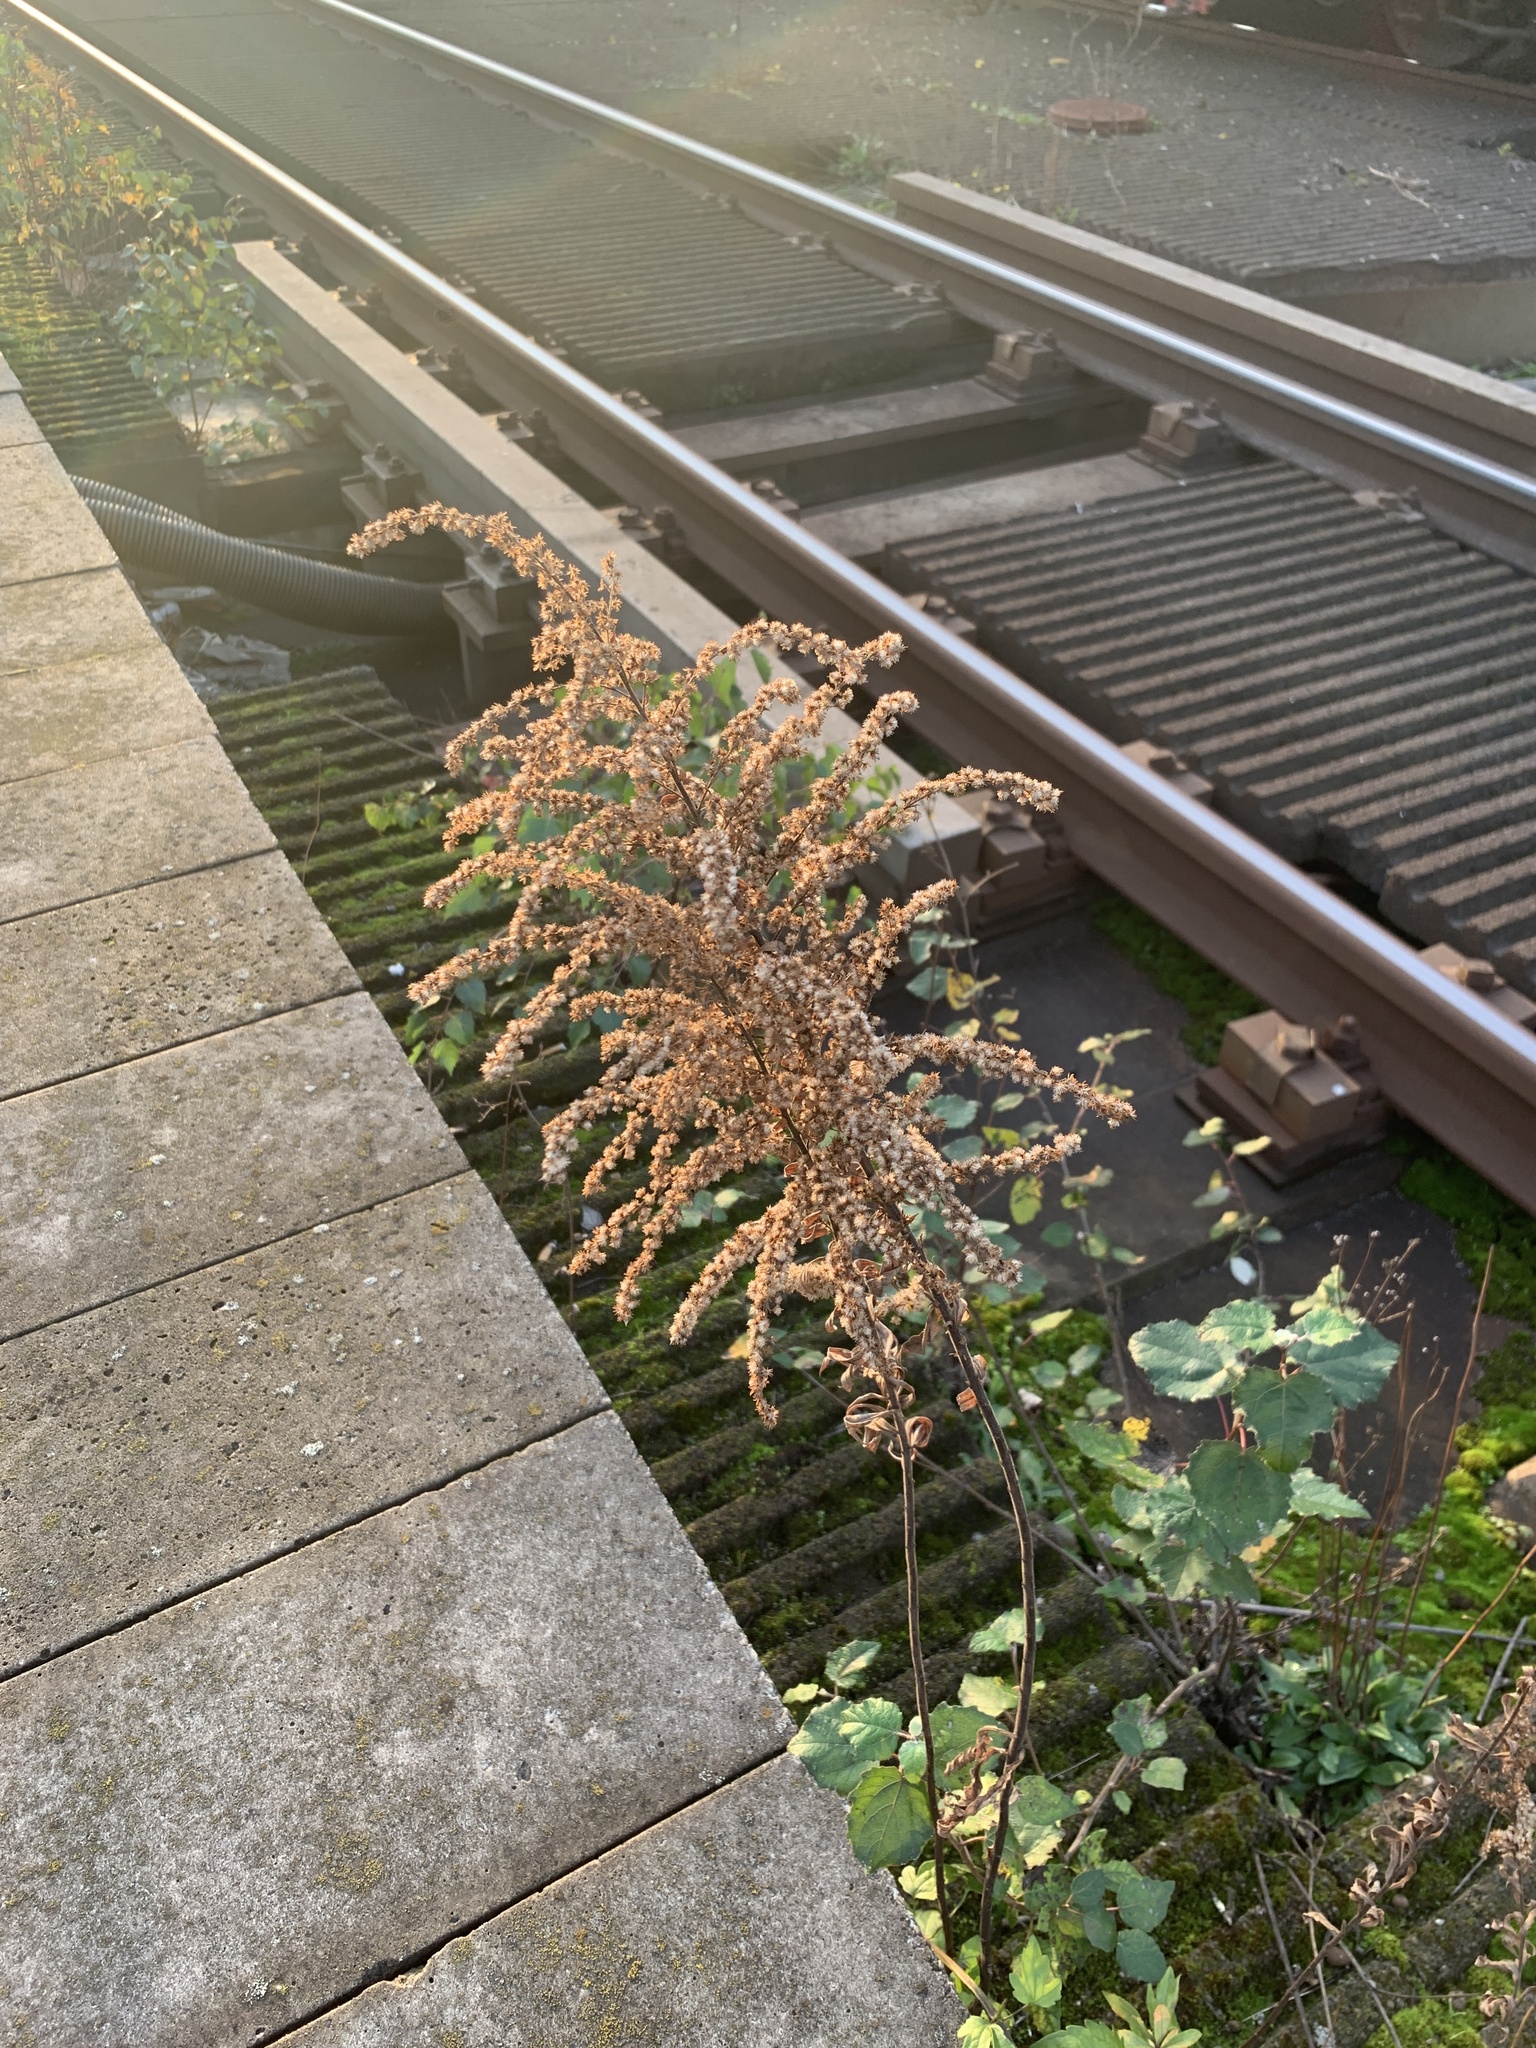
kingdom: Plantae
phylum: Tracheophyta
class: Magnoliopsida
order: Asterales
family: Asteraceae
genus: Solidago
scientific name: Solidago canadensis
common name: Canada goldenrod
